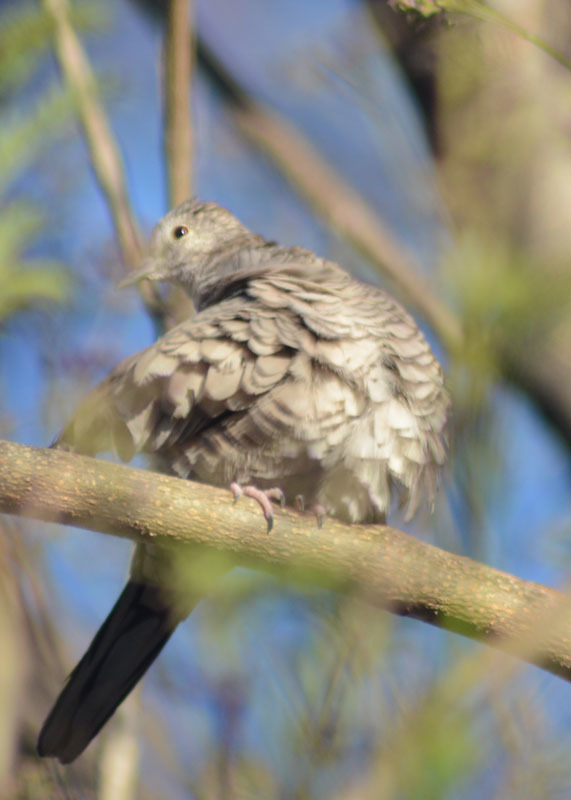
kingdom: Animalia
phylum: Chordata
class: Aves
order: Columbiformes
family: Columbidae
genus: Columbina
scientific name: Columbina inca
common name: Inca dove
